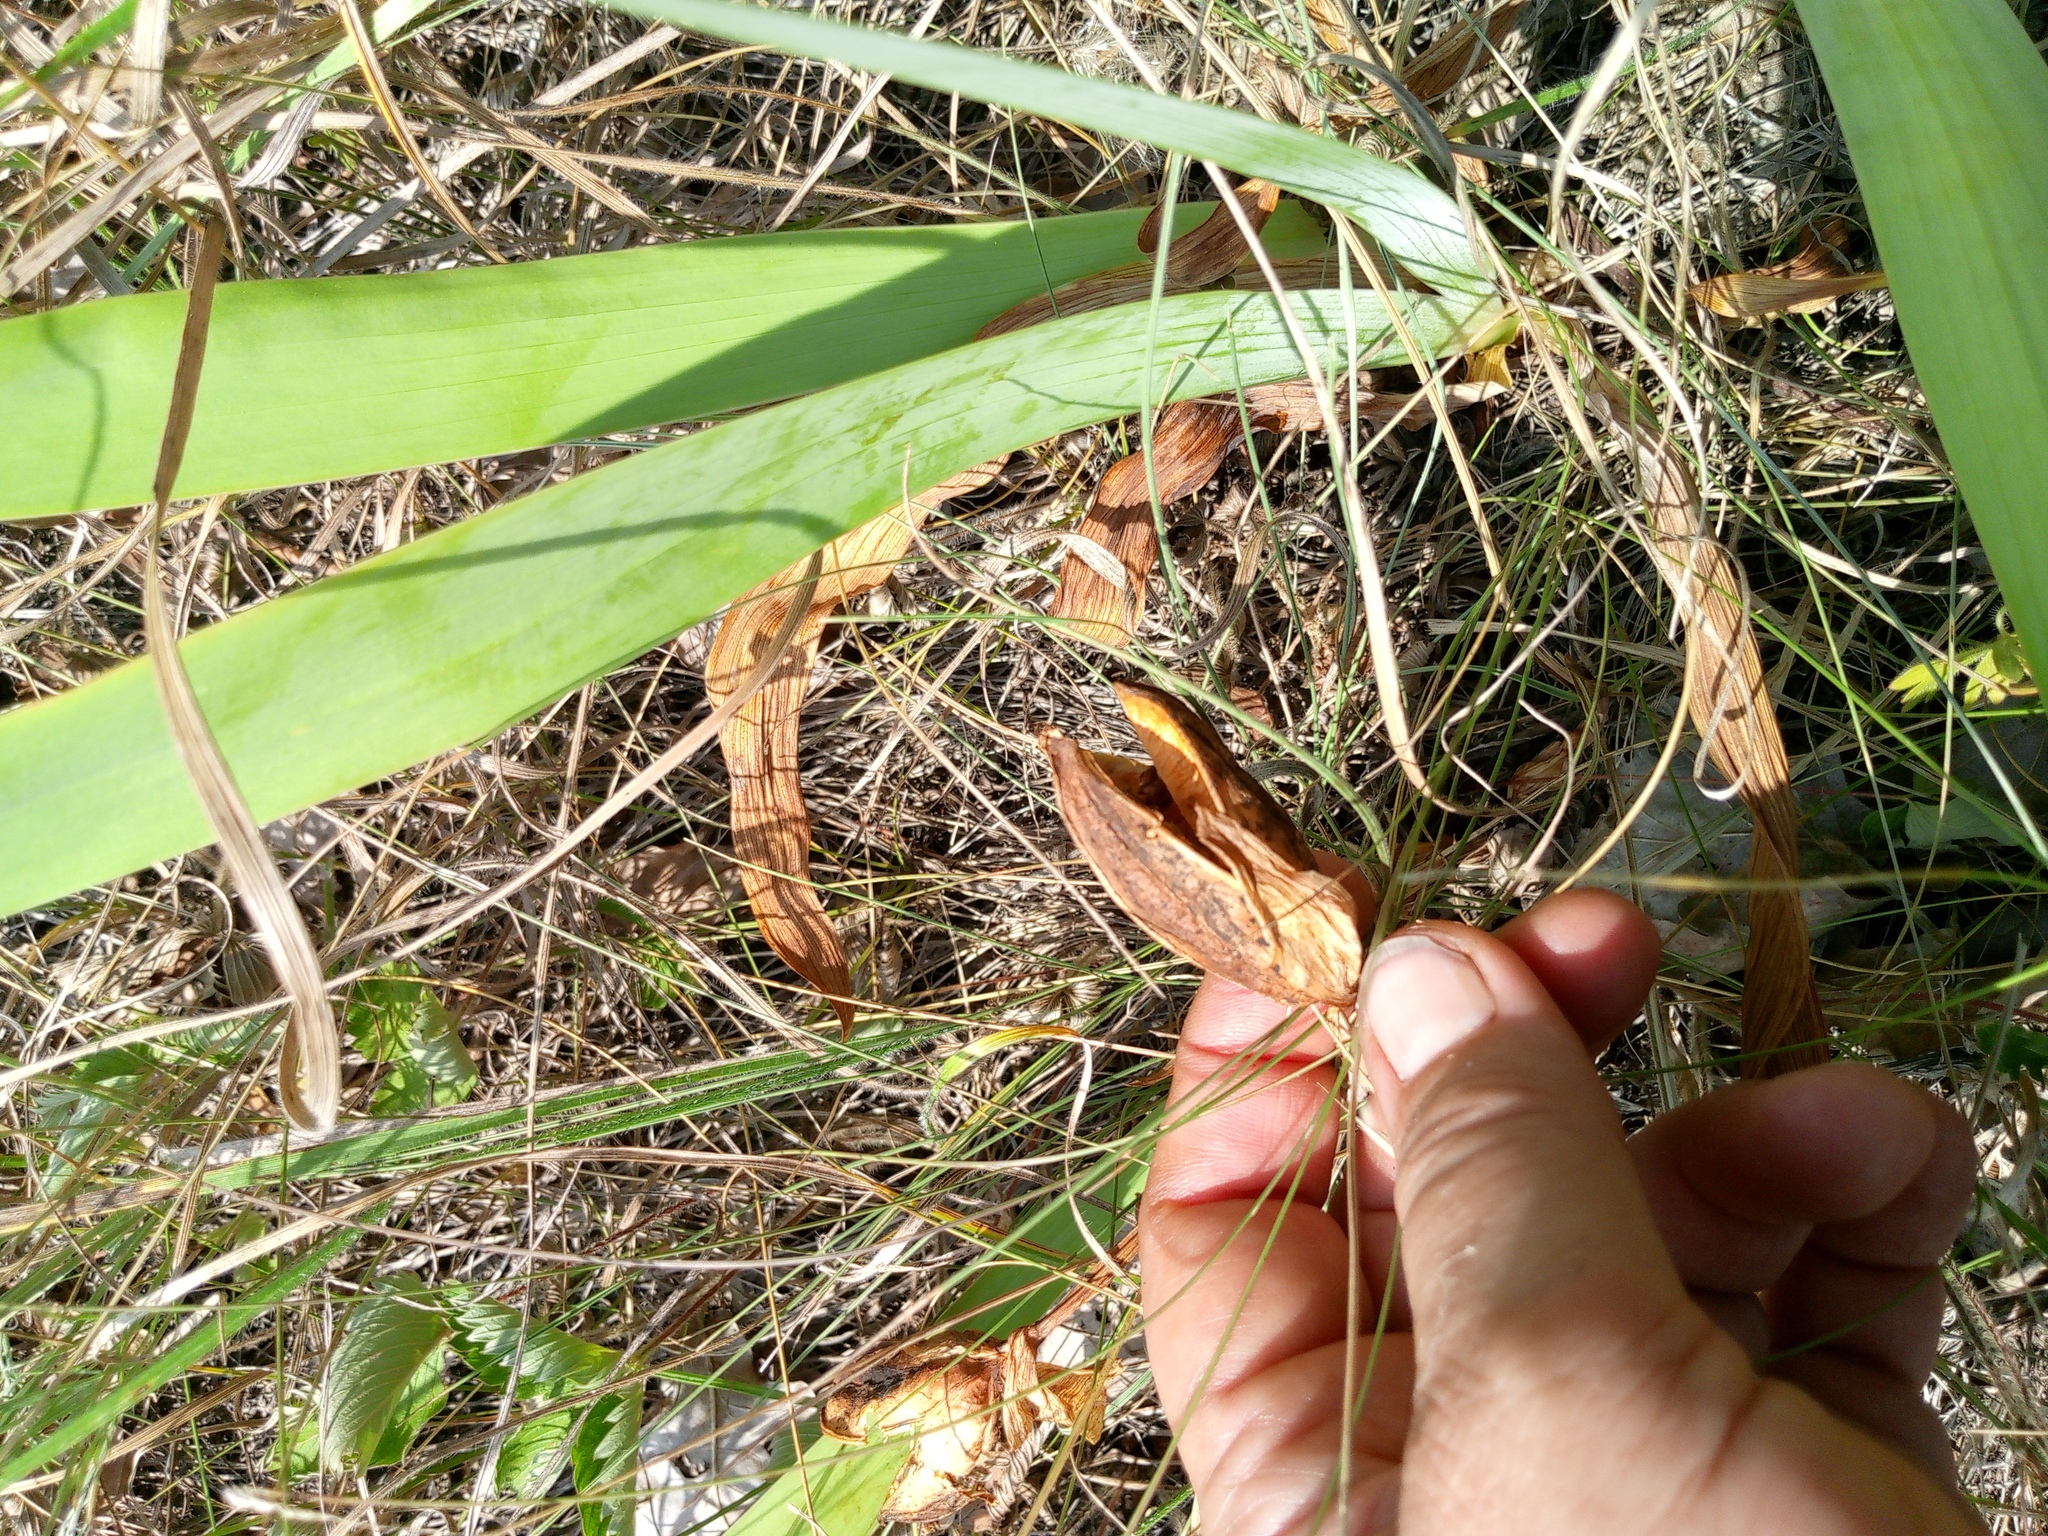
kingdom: Plantae
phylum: Tracheophyta
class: Liliopsida
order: Asparagales
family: Iridaceae
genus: Iris
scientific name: Iris aphylla
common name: Stool iris
